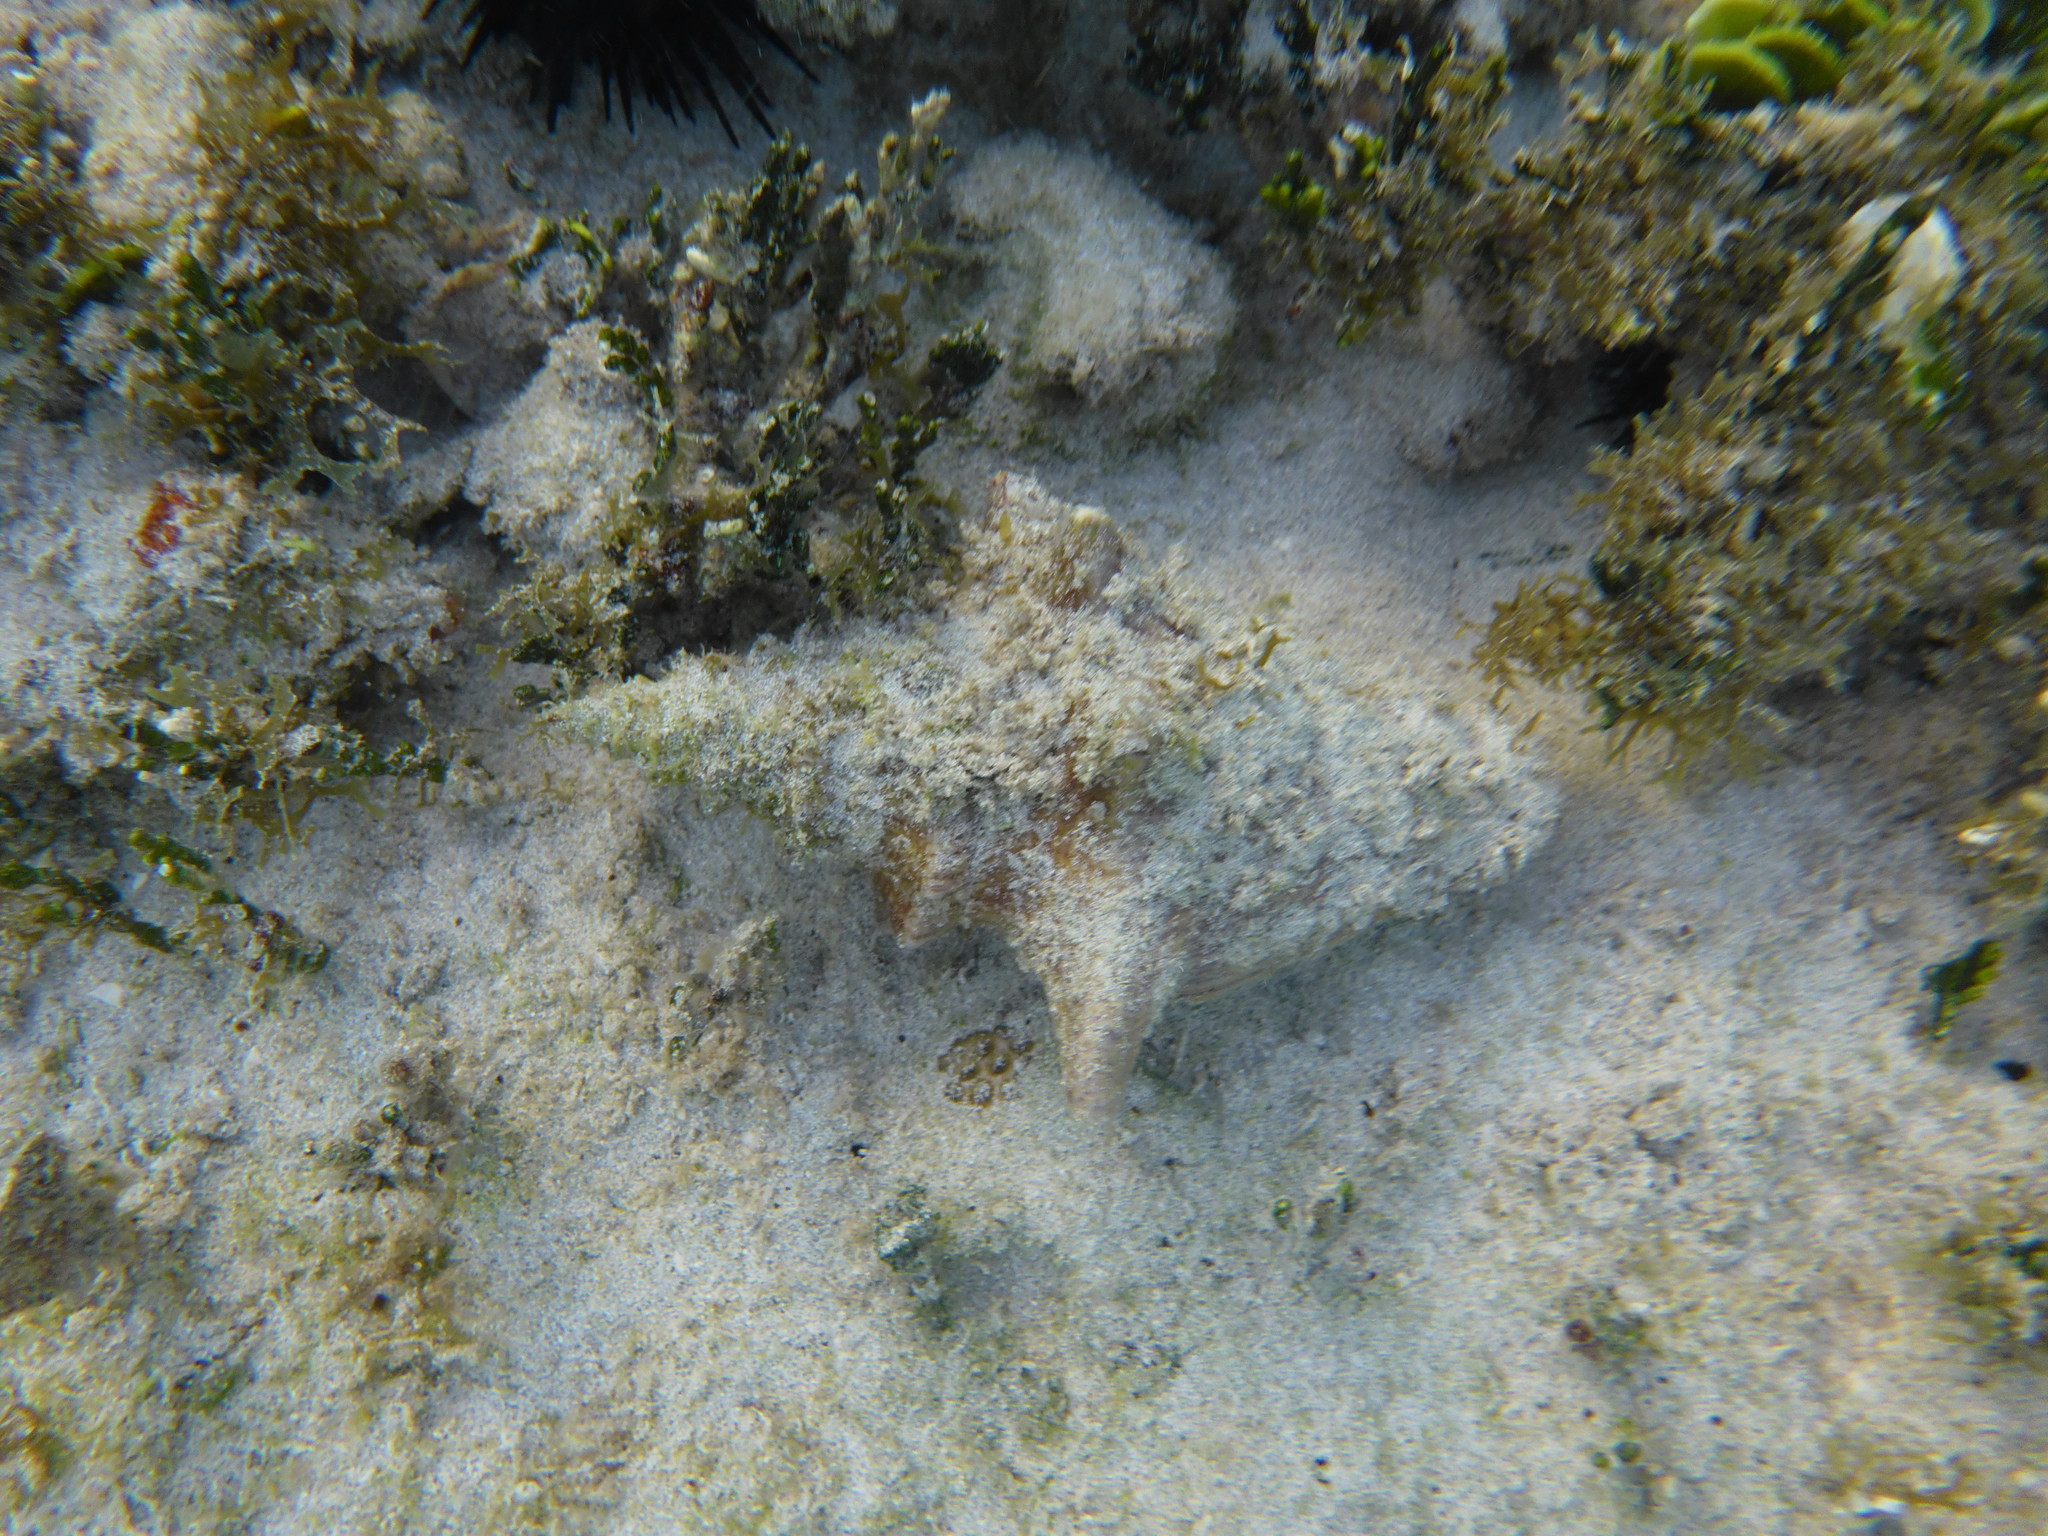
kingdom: Animalia
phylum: Mollusca
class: Gastropoda
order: Littorinimorpha
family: Strombidae
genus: Aliger
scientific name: Aliger gigas
